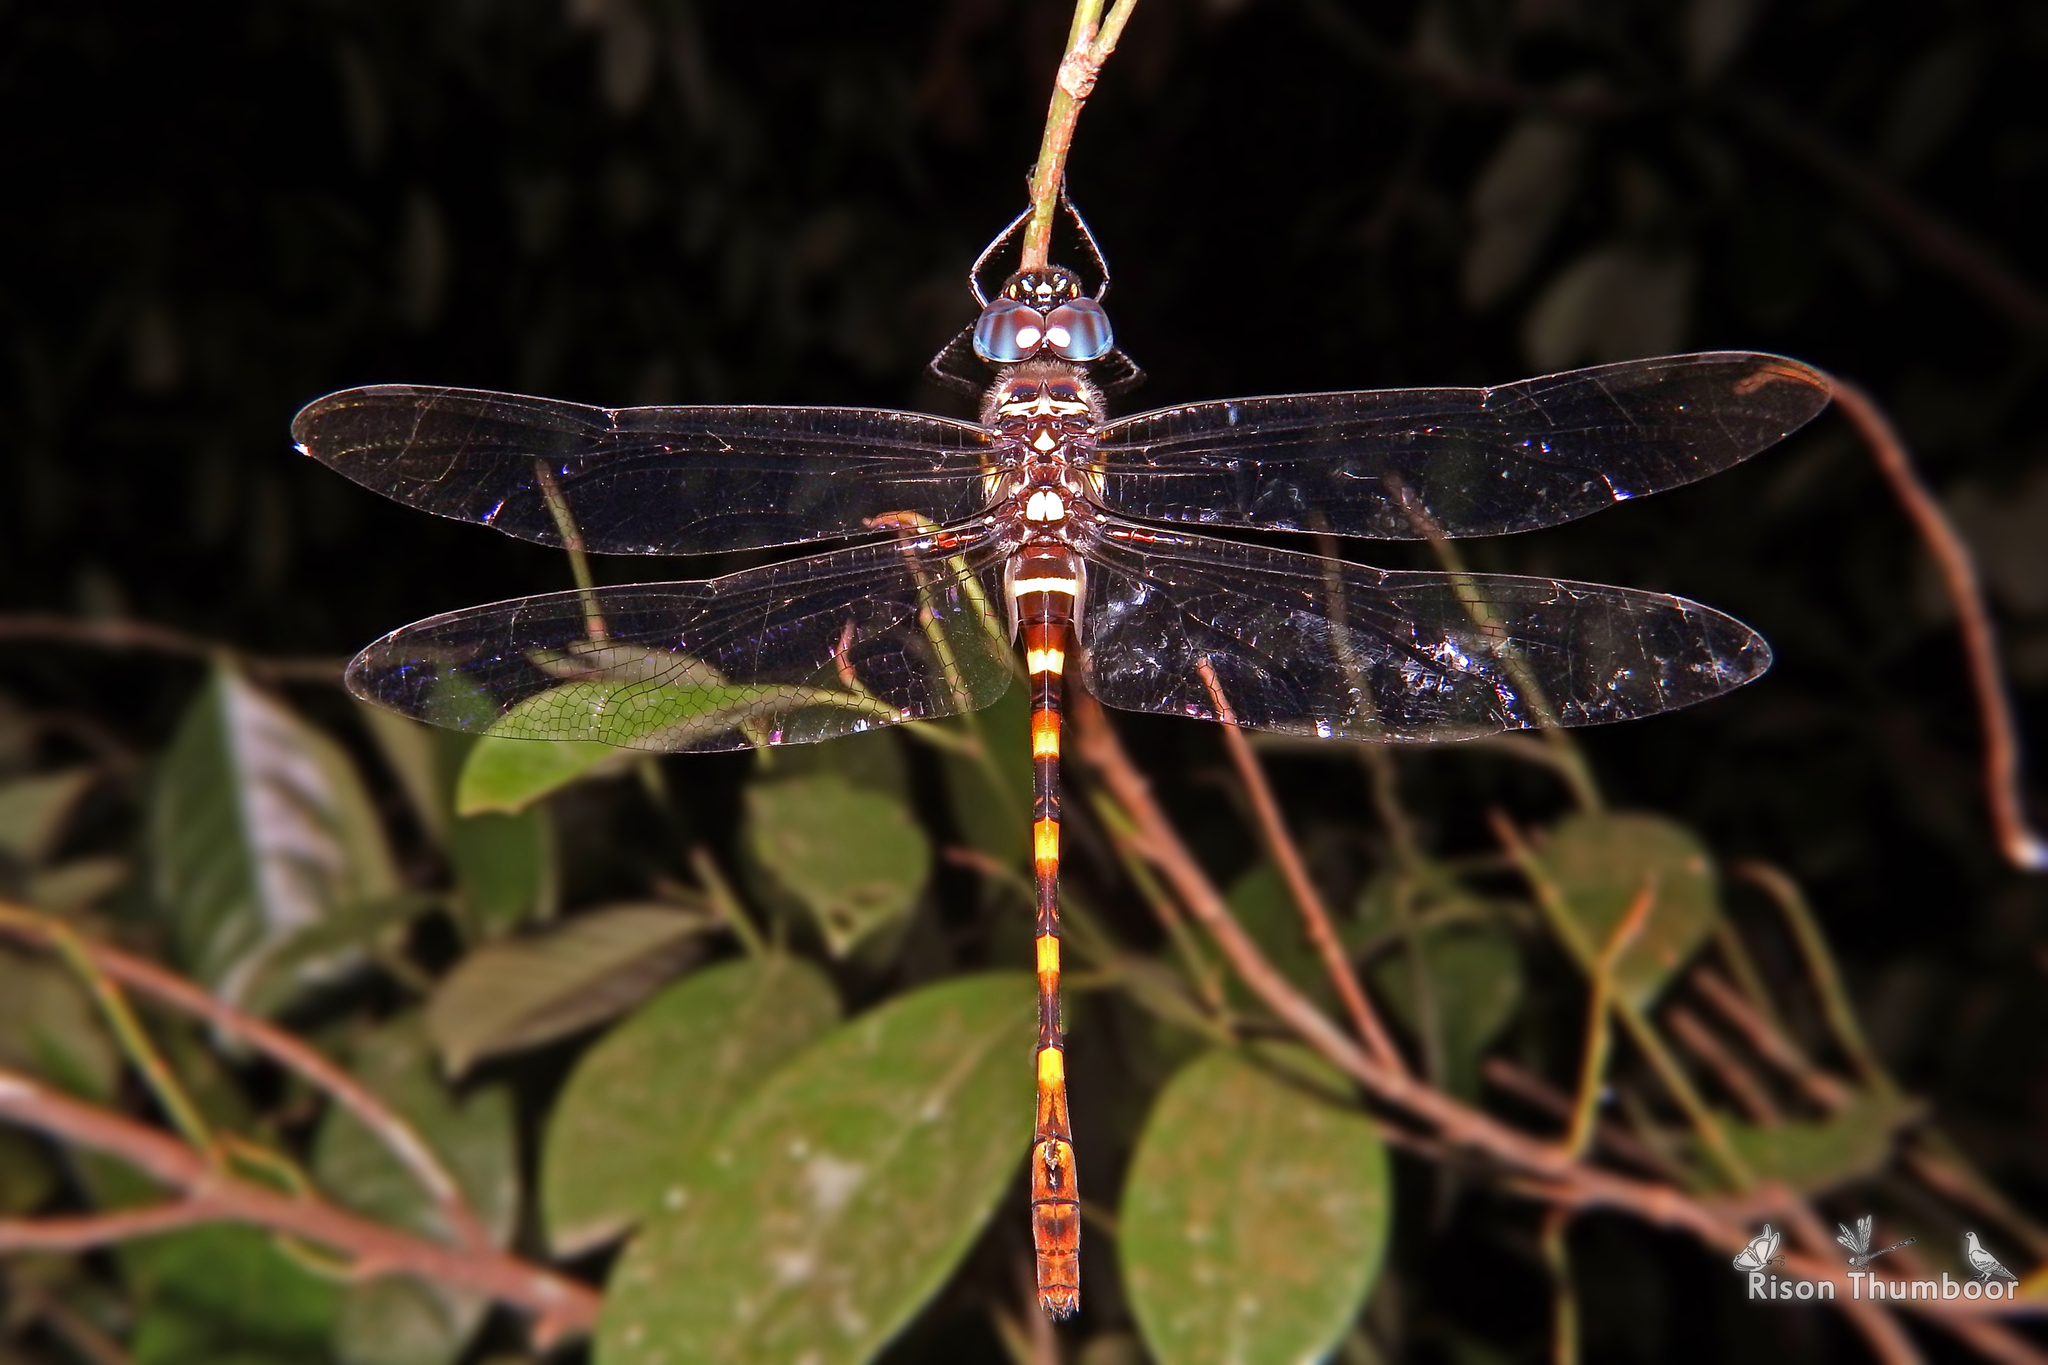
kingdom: Animalia
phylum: Arthropoda
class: Insecta
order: Odonata
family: Macromiidae
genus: Epophthalmia
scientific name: Epophthalmia vittata
